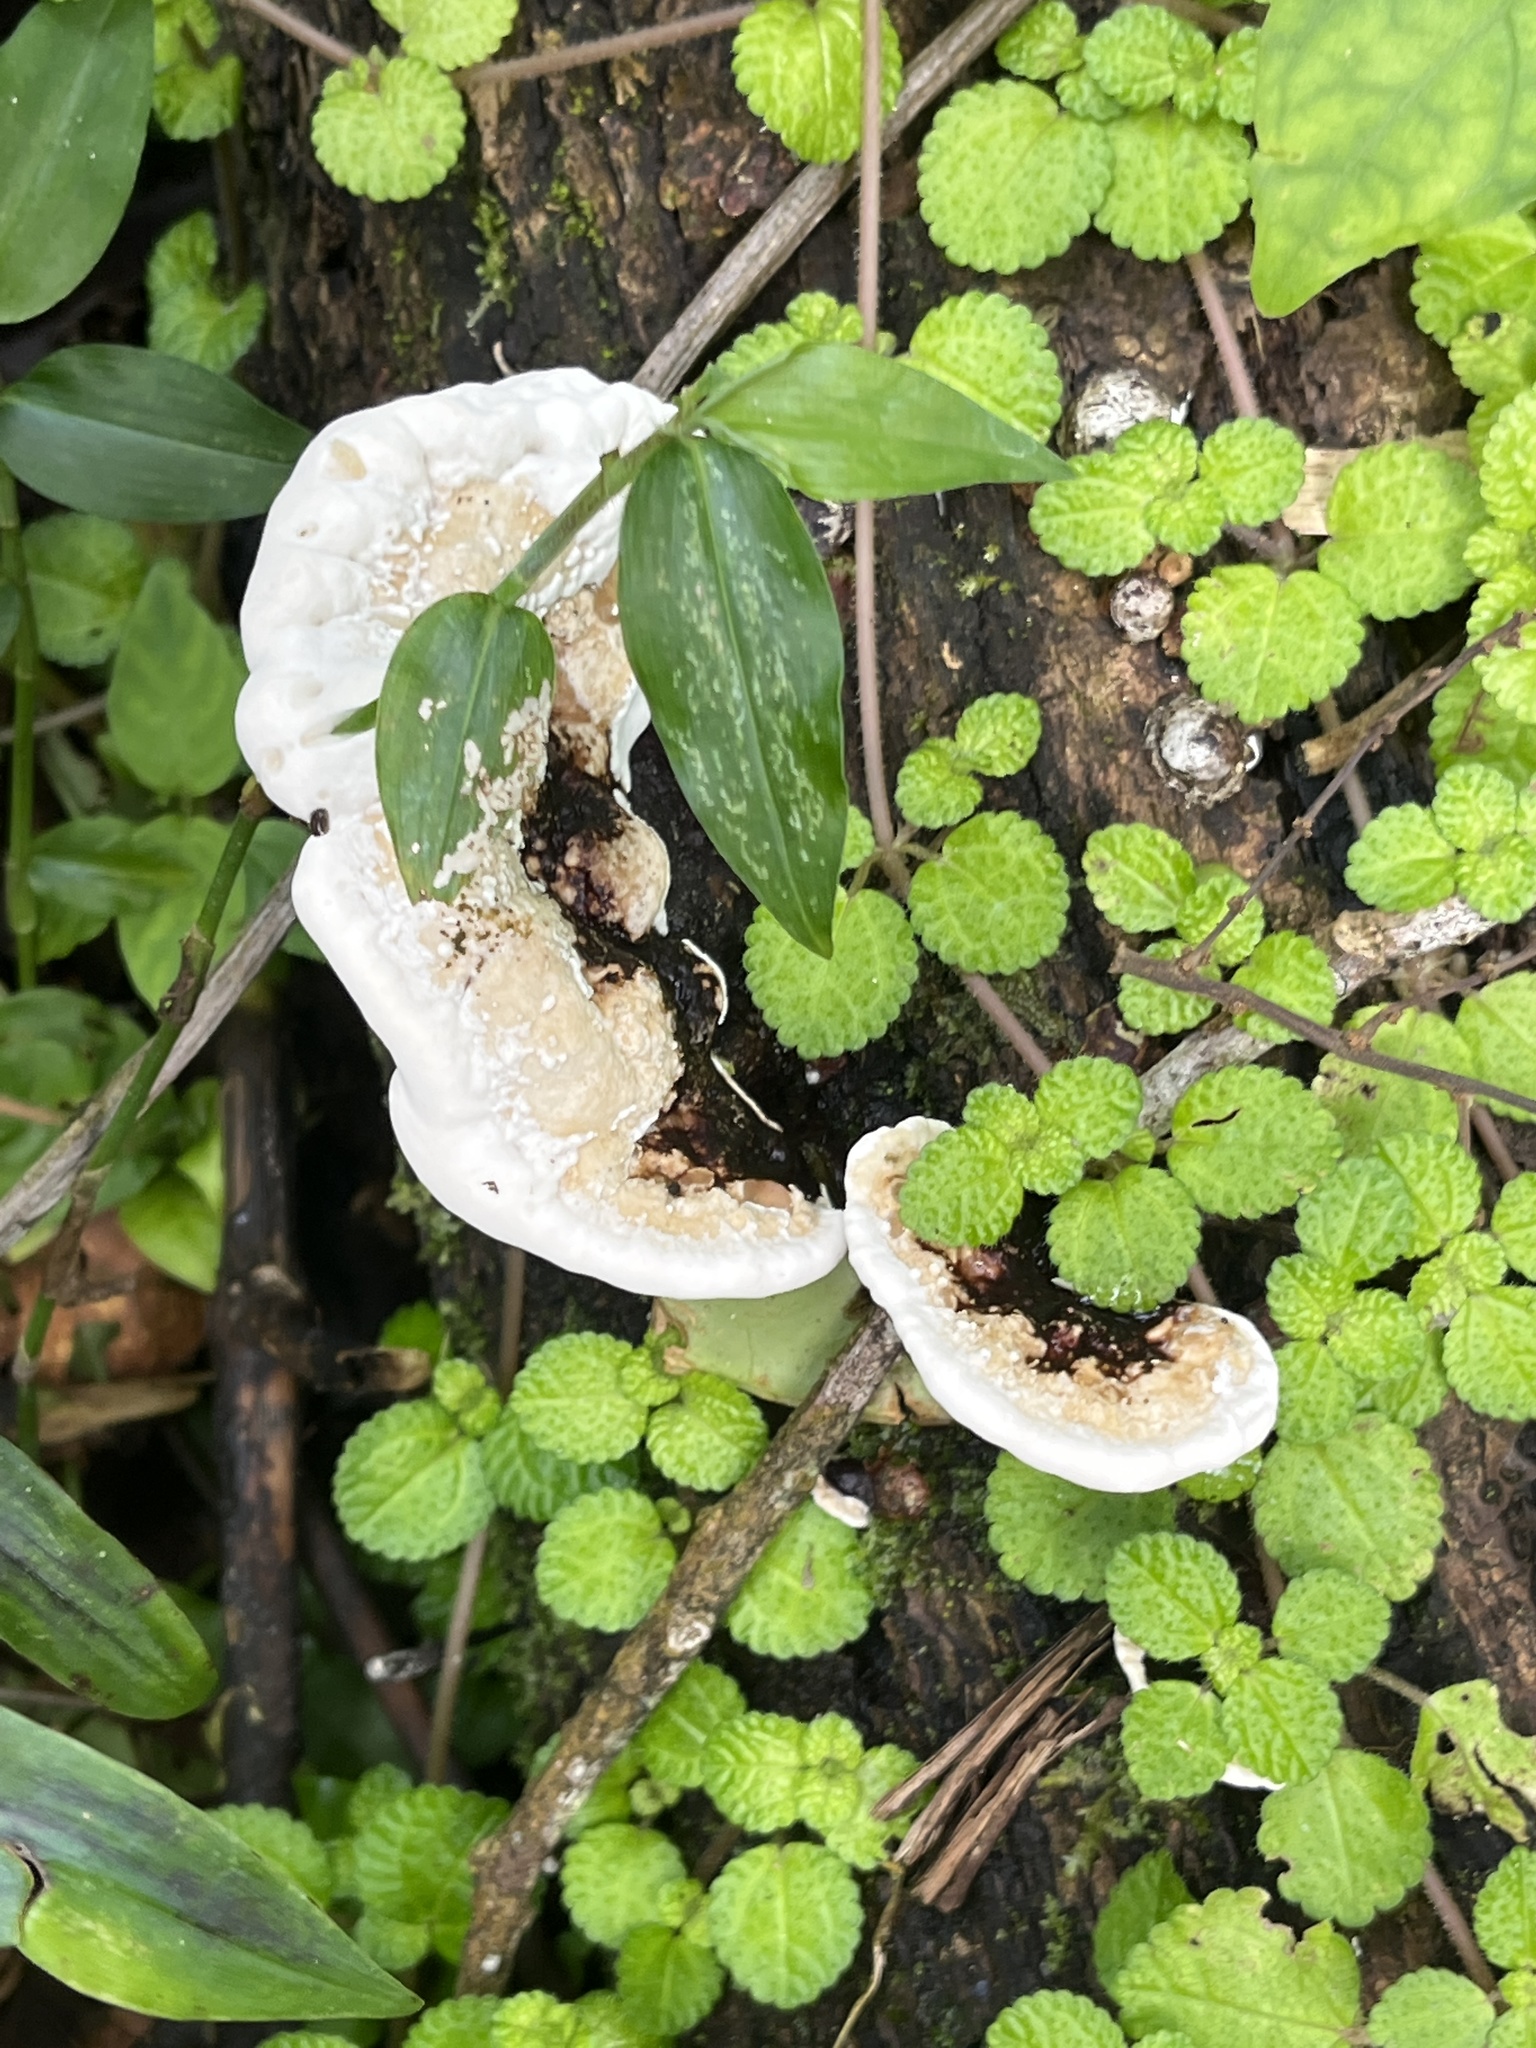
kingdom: Fungi
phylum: Basidiomycota
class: Agaricomycetes
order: Polyporales
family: Polyporaceae
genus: Earliella
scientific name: Earliella scabrosa
